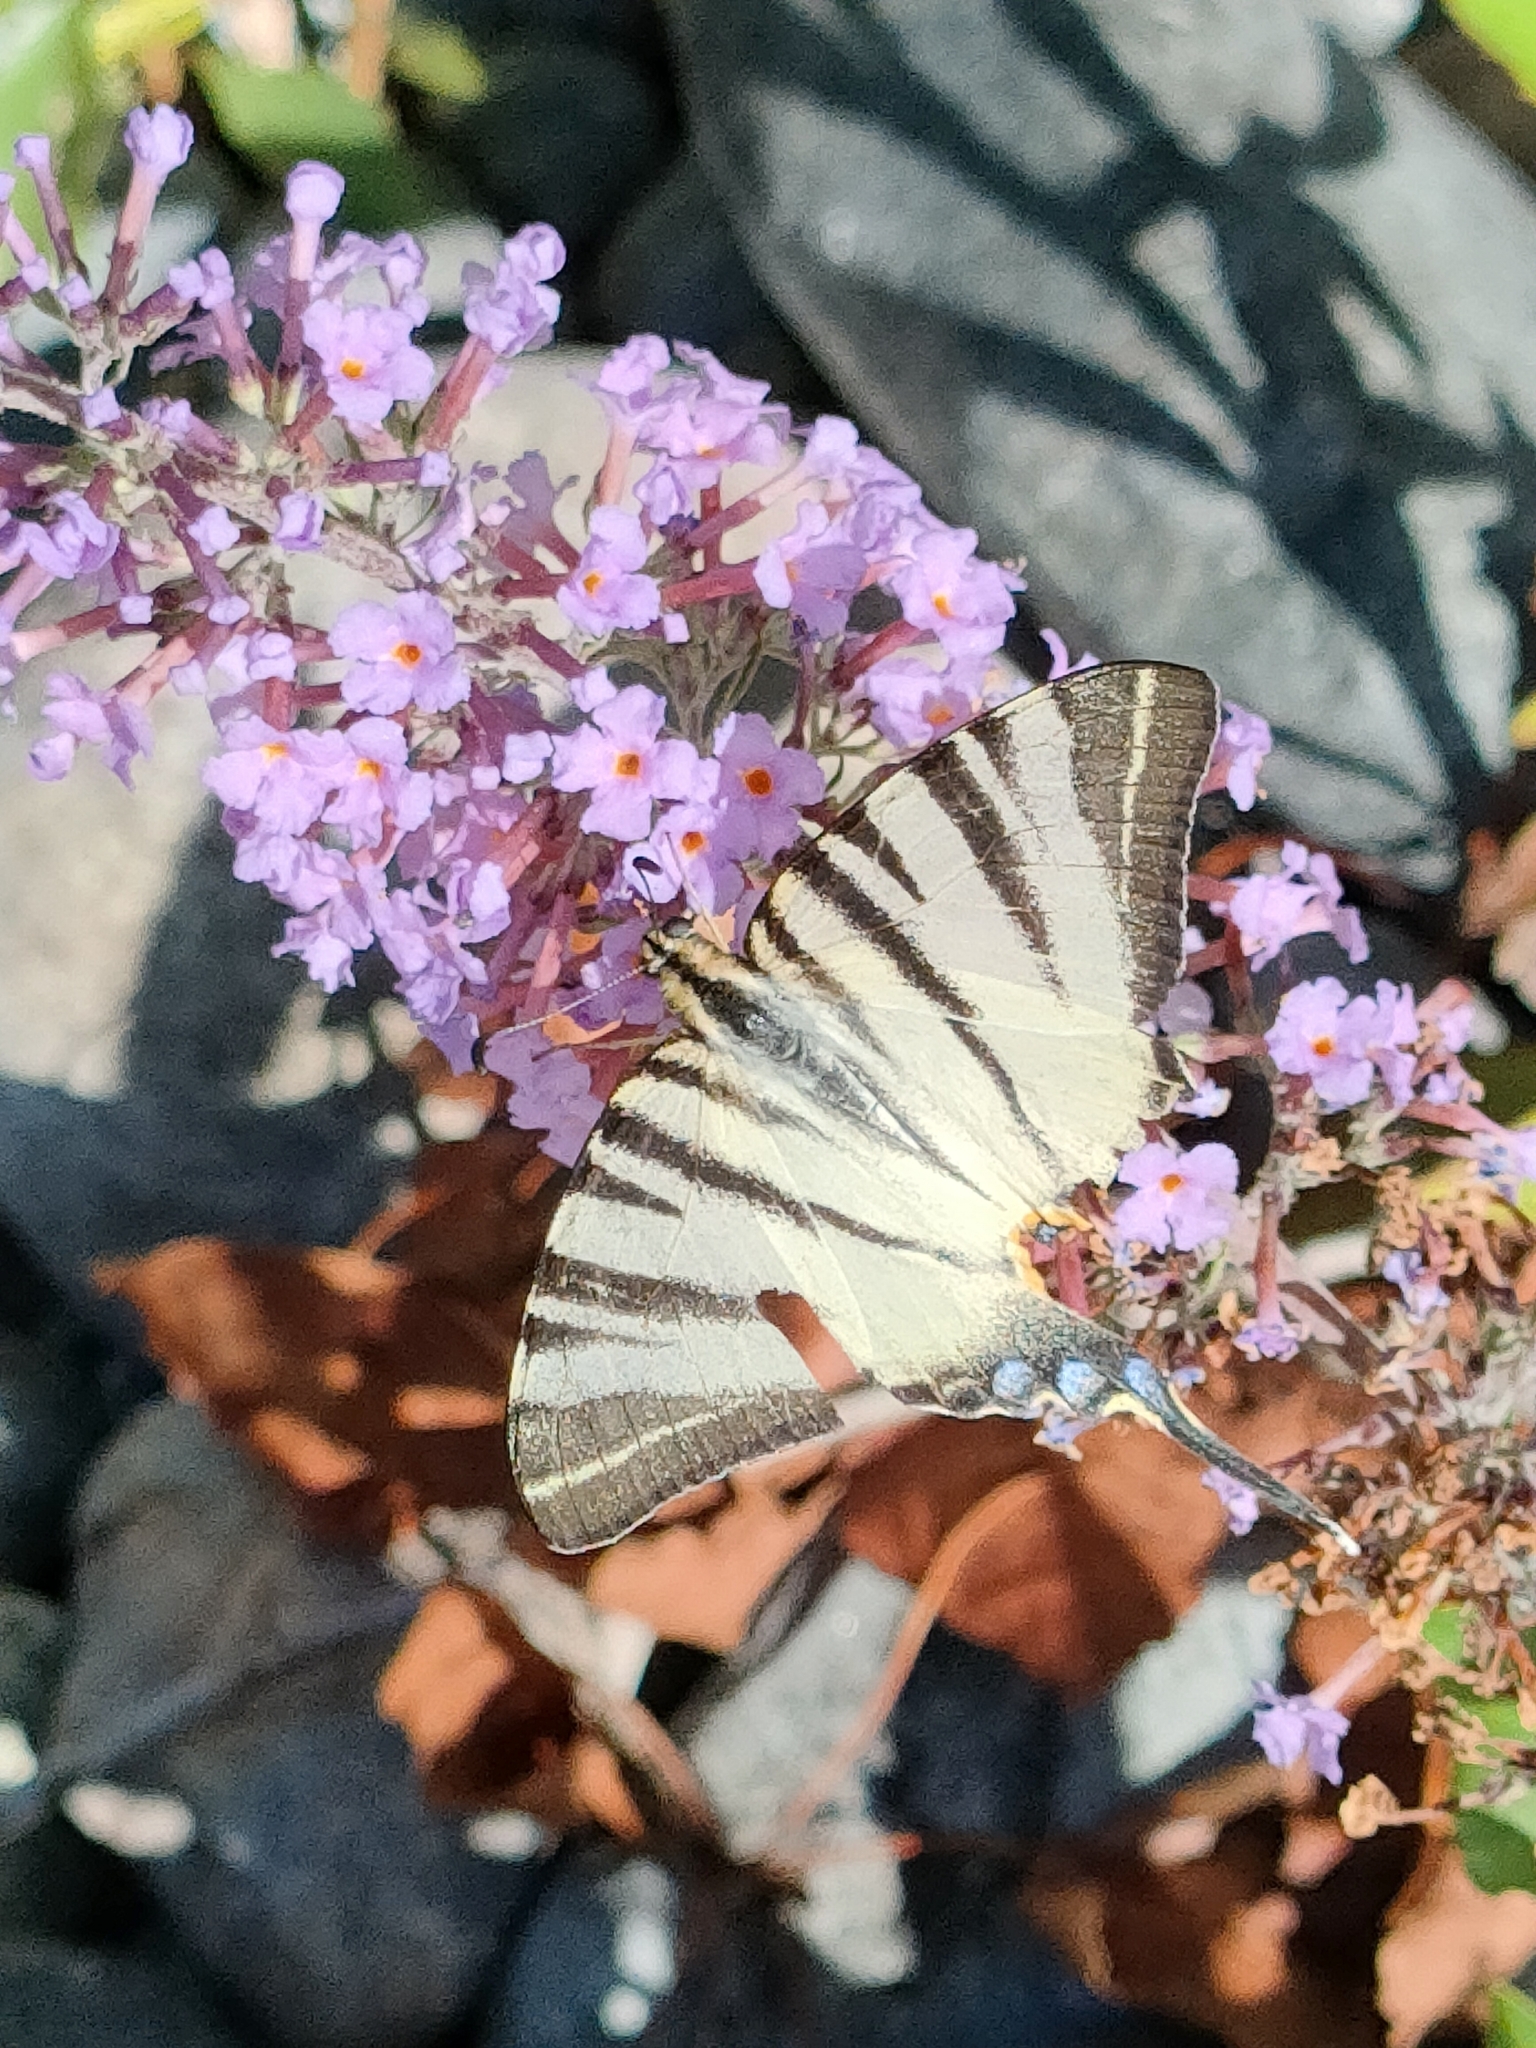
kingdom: Animalia
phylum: Arthropoda
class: Insecta
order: Lepidoptera
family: Papilionidae
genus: Iphiclides
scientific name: Iphiclides podalirius
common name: Scarce swallowtail
